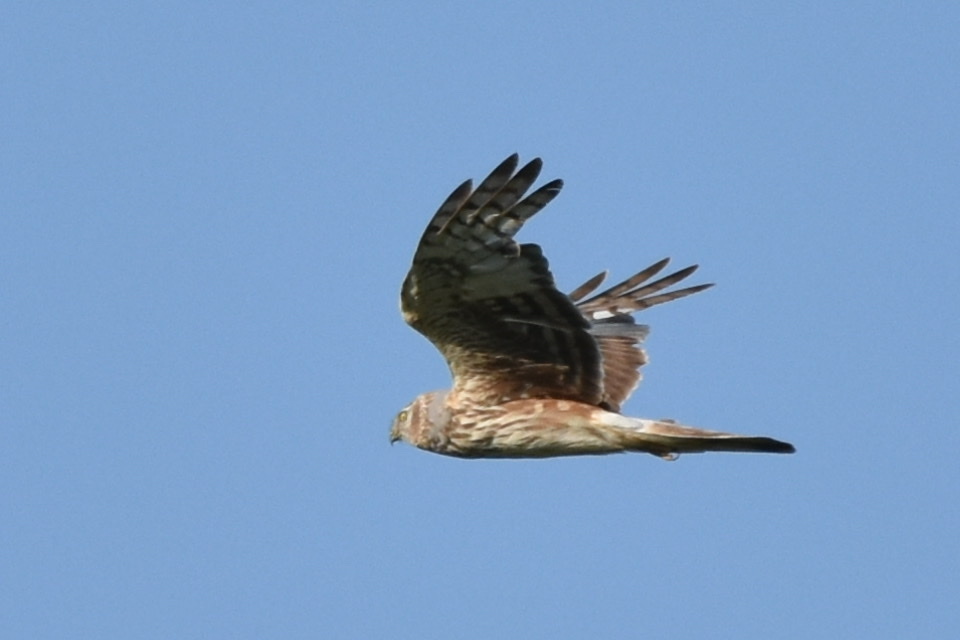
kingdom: Animalia
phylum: Chordata
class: Aves
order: Accipitriformes
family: Accipitridae
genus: Circus
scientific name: Circus cyaneus
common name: Hen harrier
